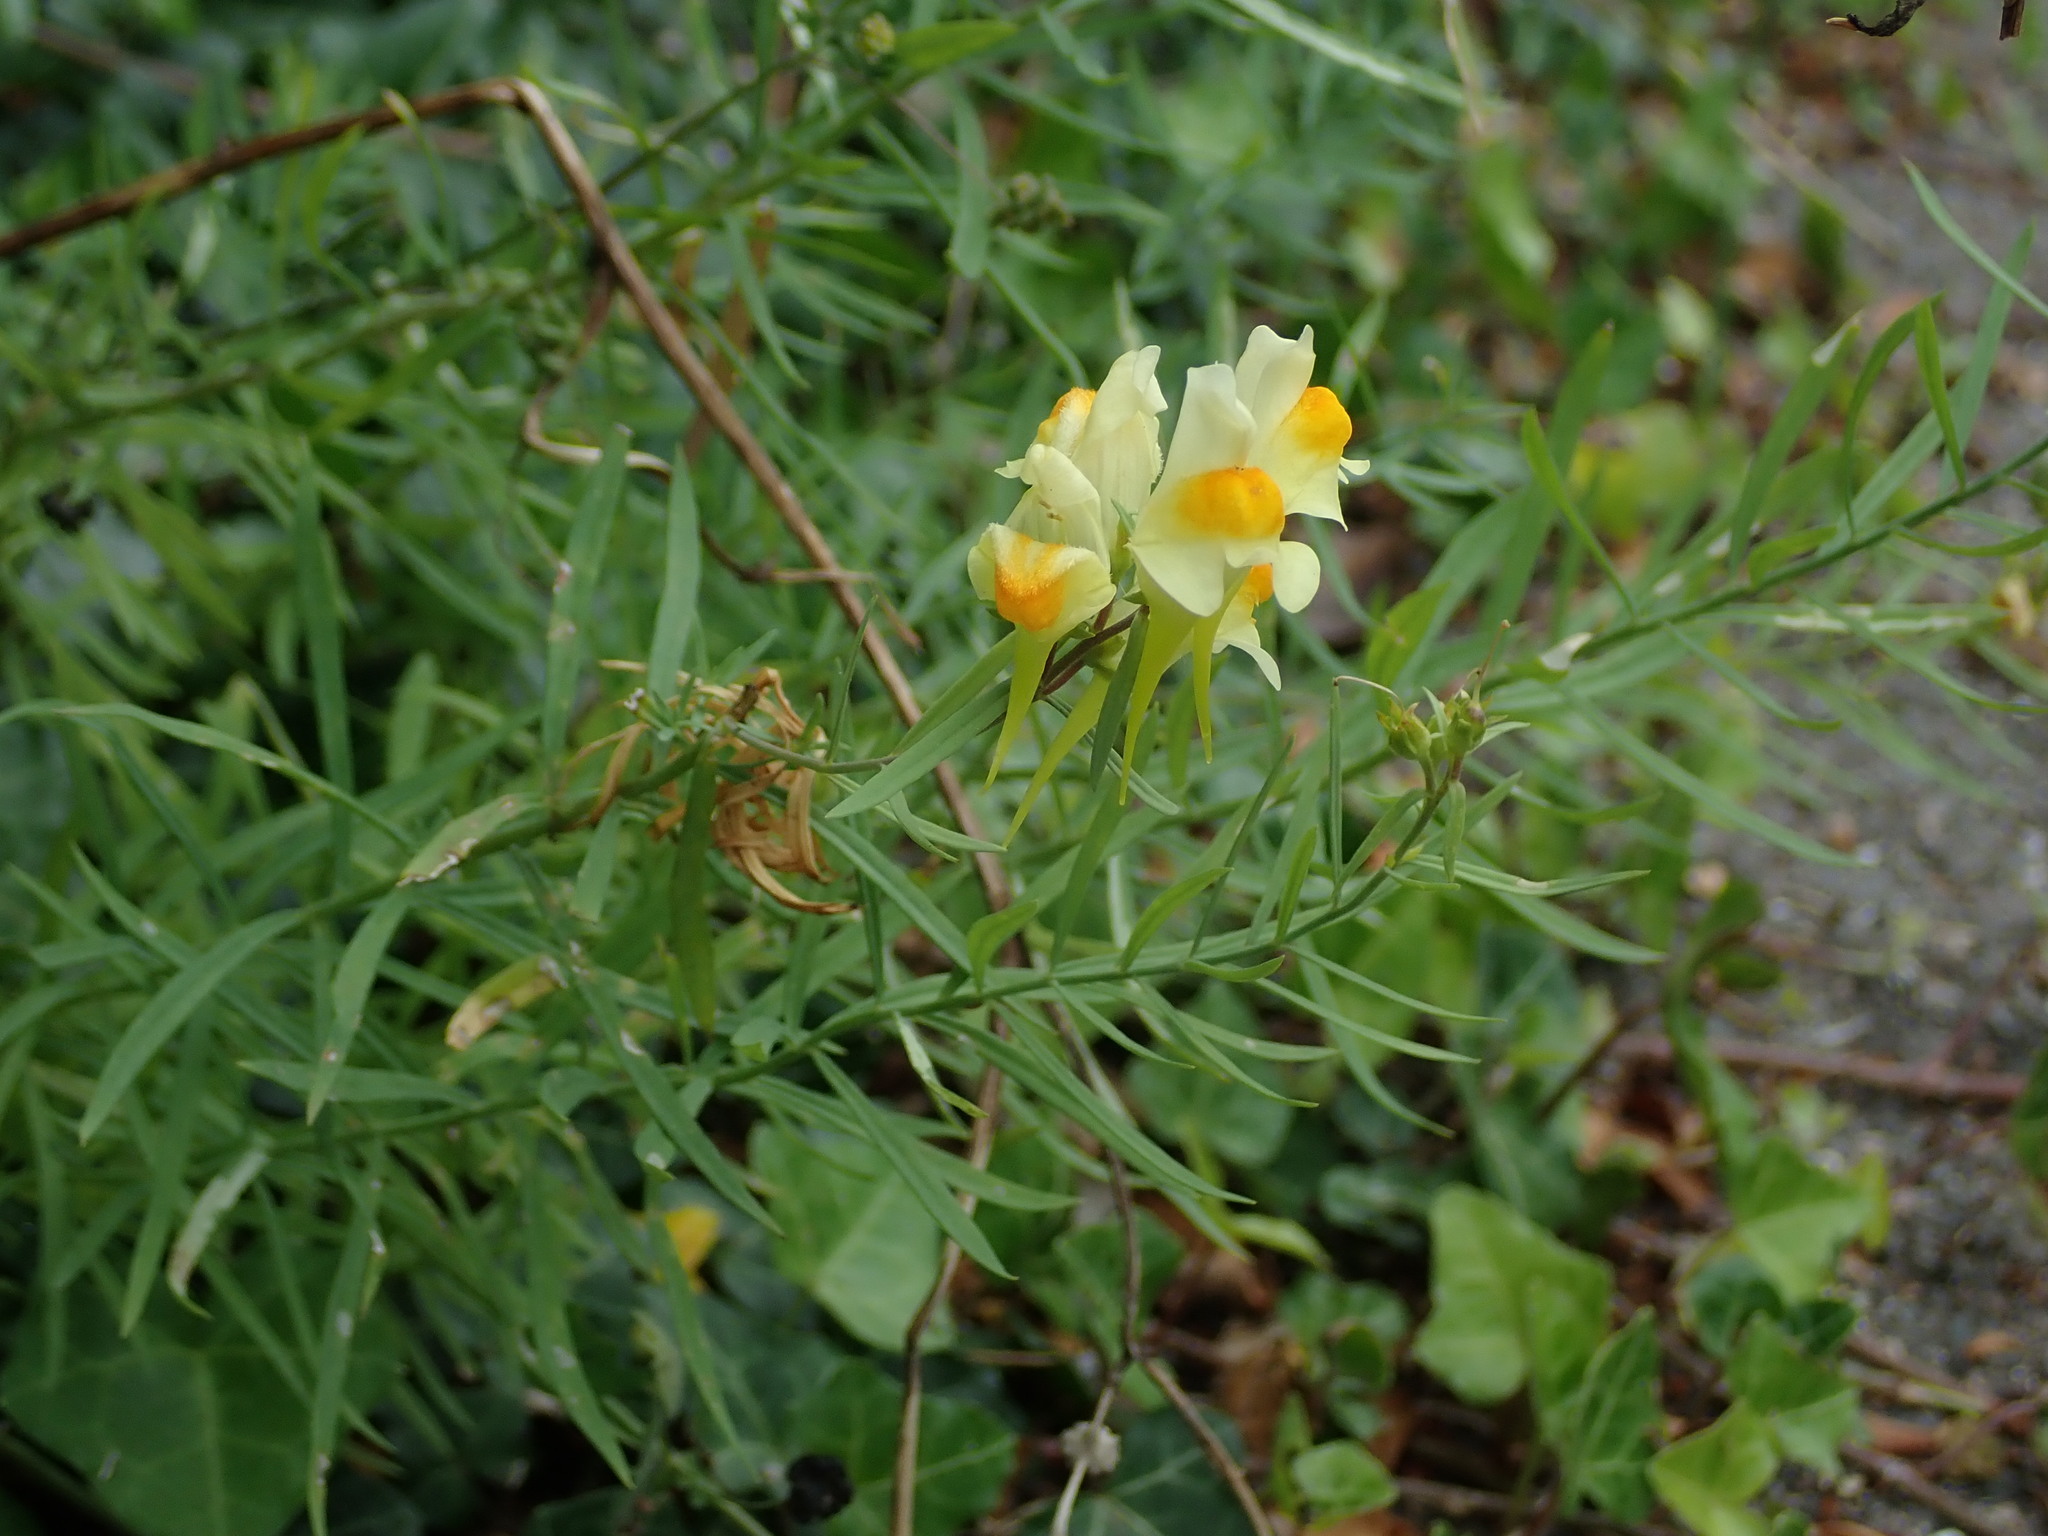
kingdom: Plantae
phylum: Tracheophyta
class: Magnoliopsida
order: Lamiales
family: Plantaginaceae
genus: Linaria
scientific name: Linaria vulgaris
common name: Butter and eggs
